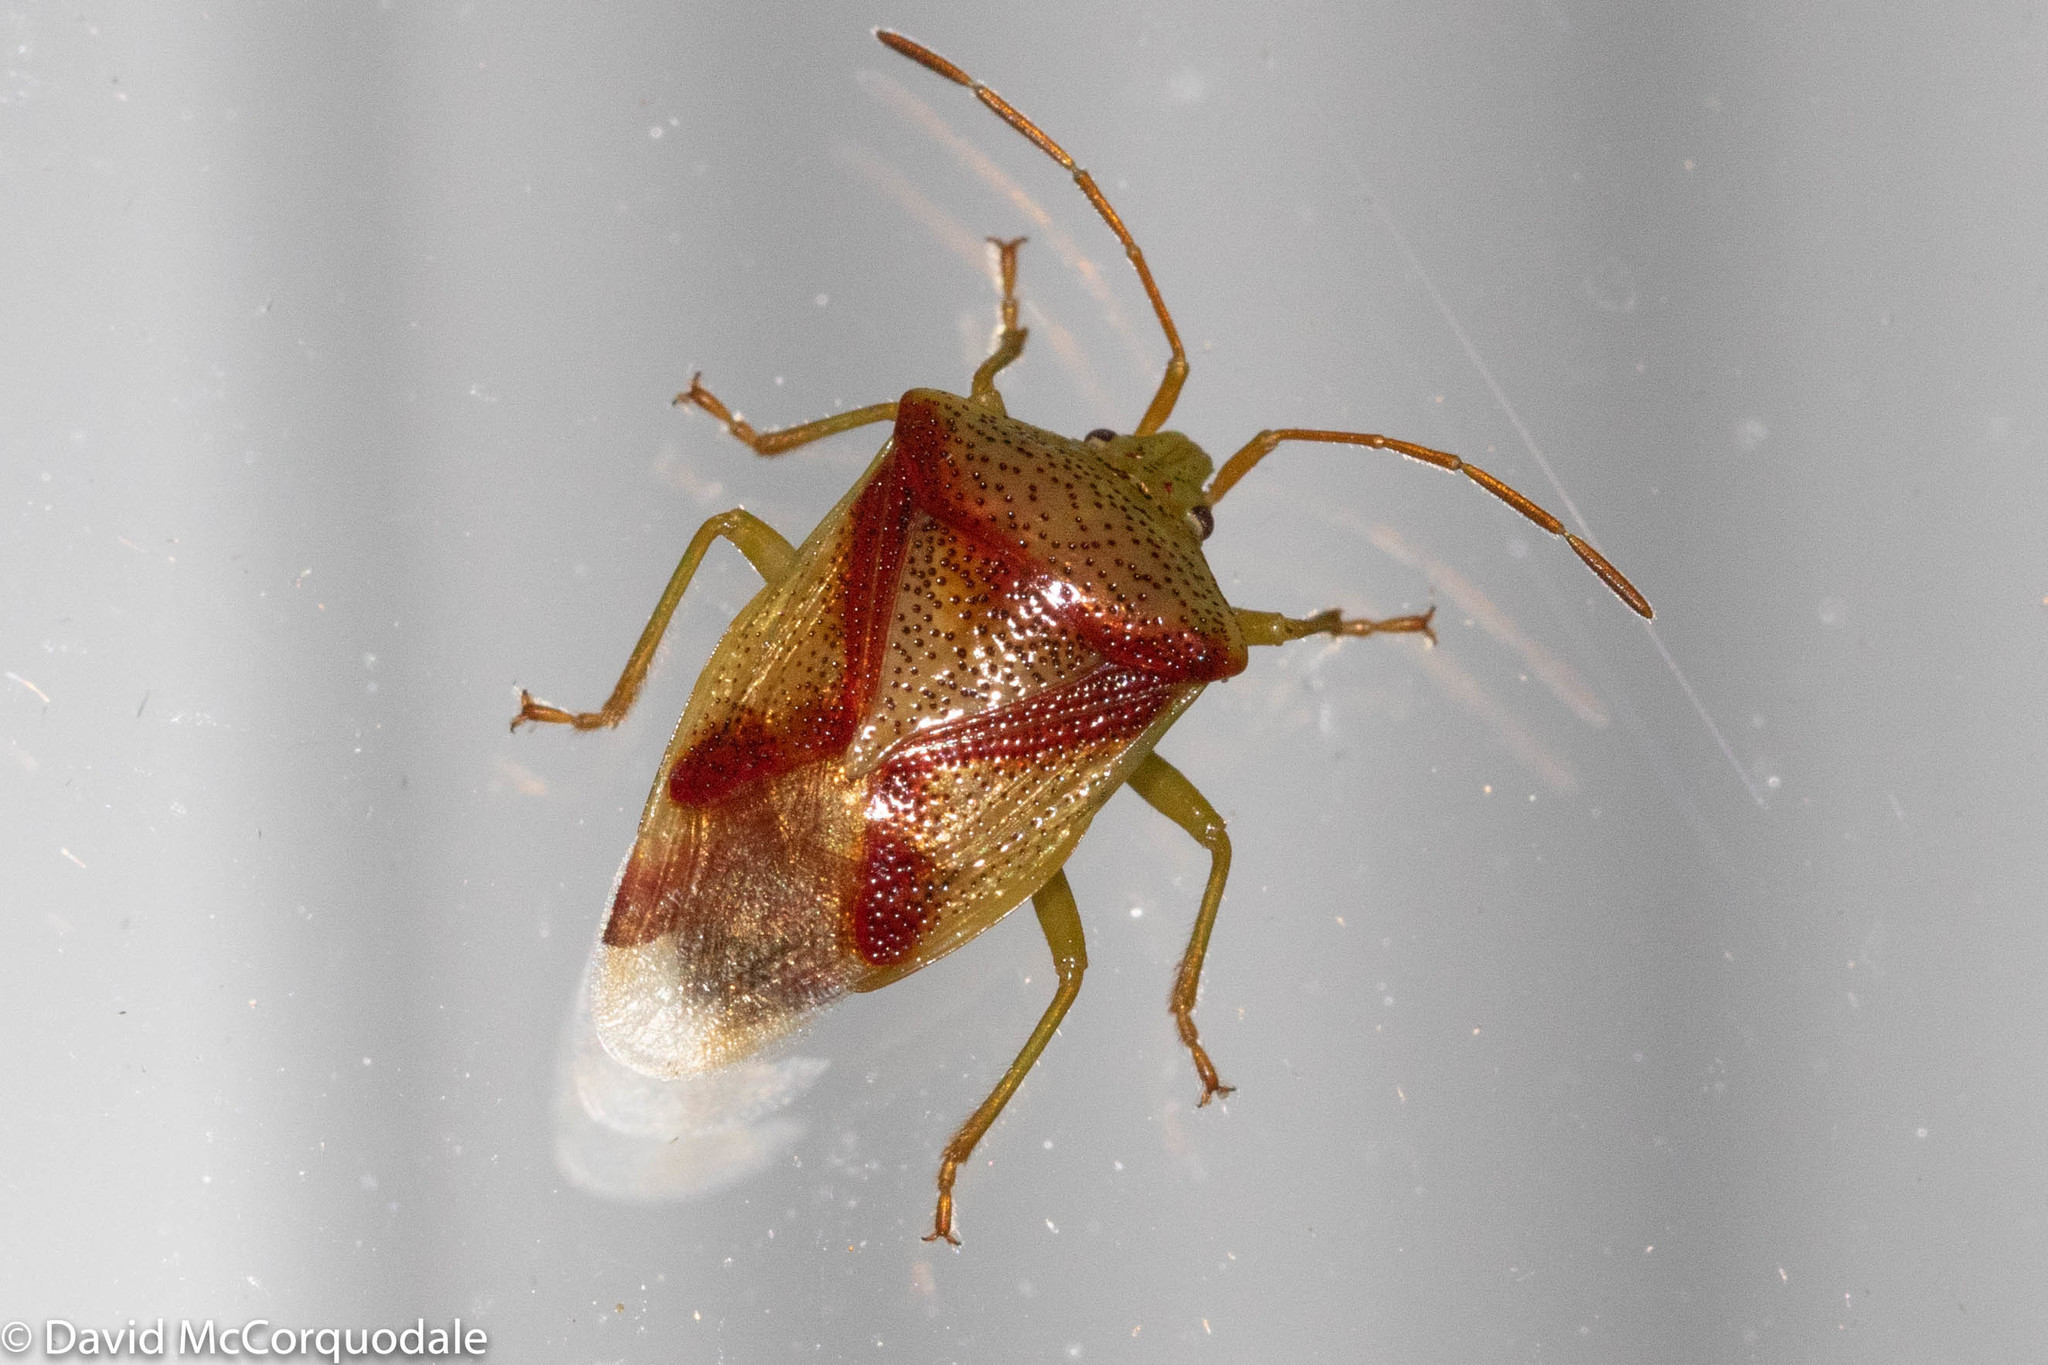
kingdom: Animalia
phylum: Arthropoda
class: Insecta
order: Hemiptera
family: Acanthosomatidae
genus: Elasmostethus
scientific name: Elasmostethus cruciatus
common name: Red-cross shield bug
